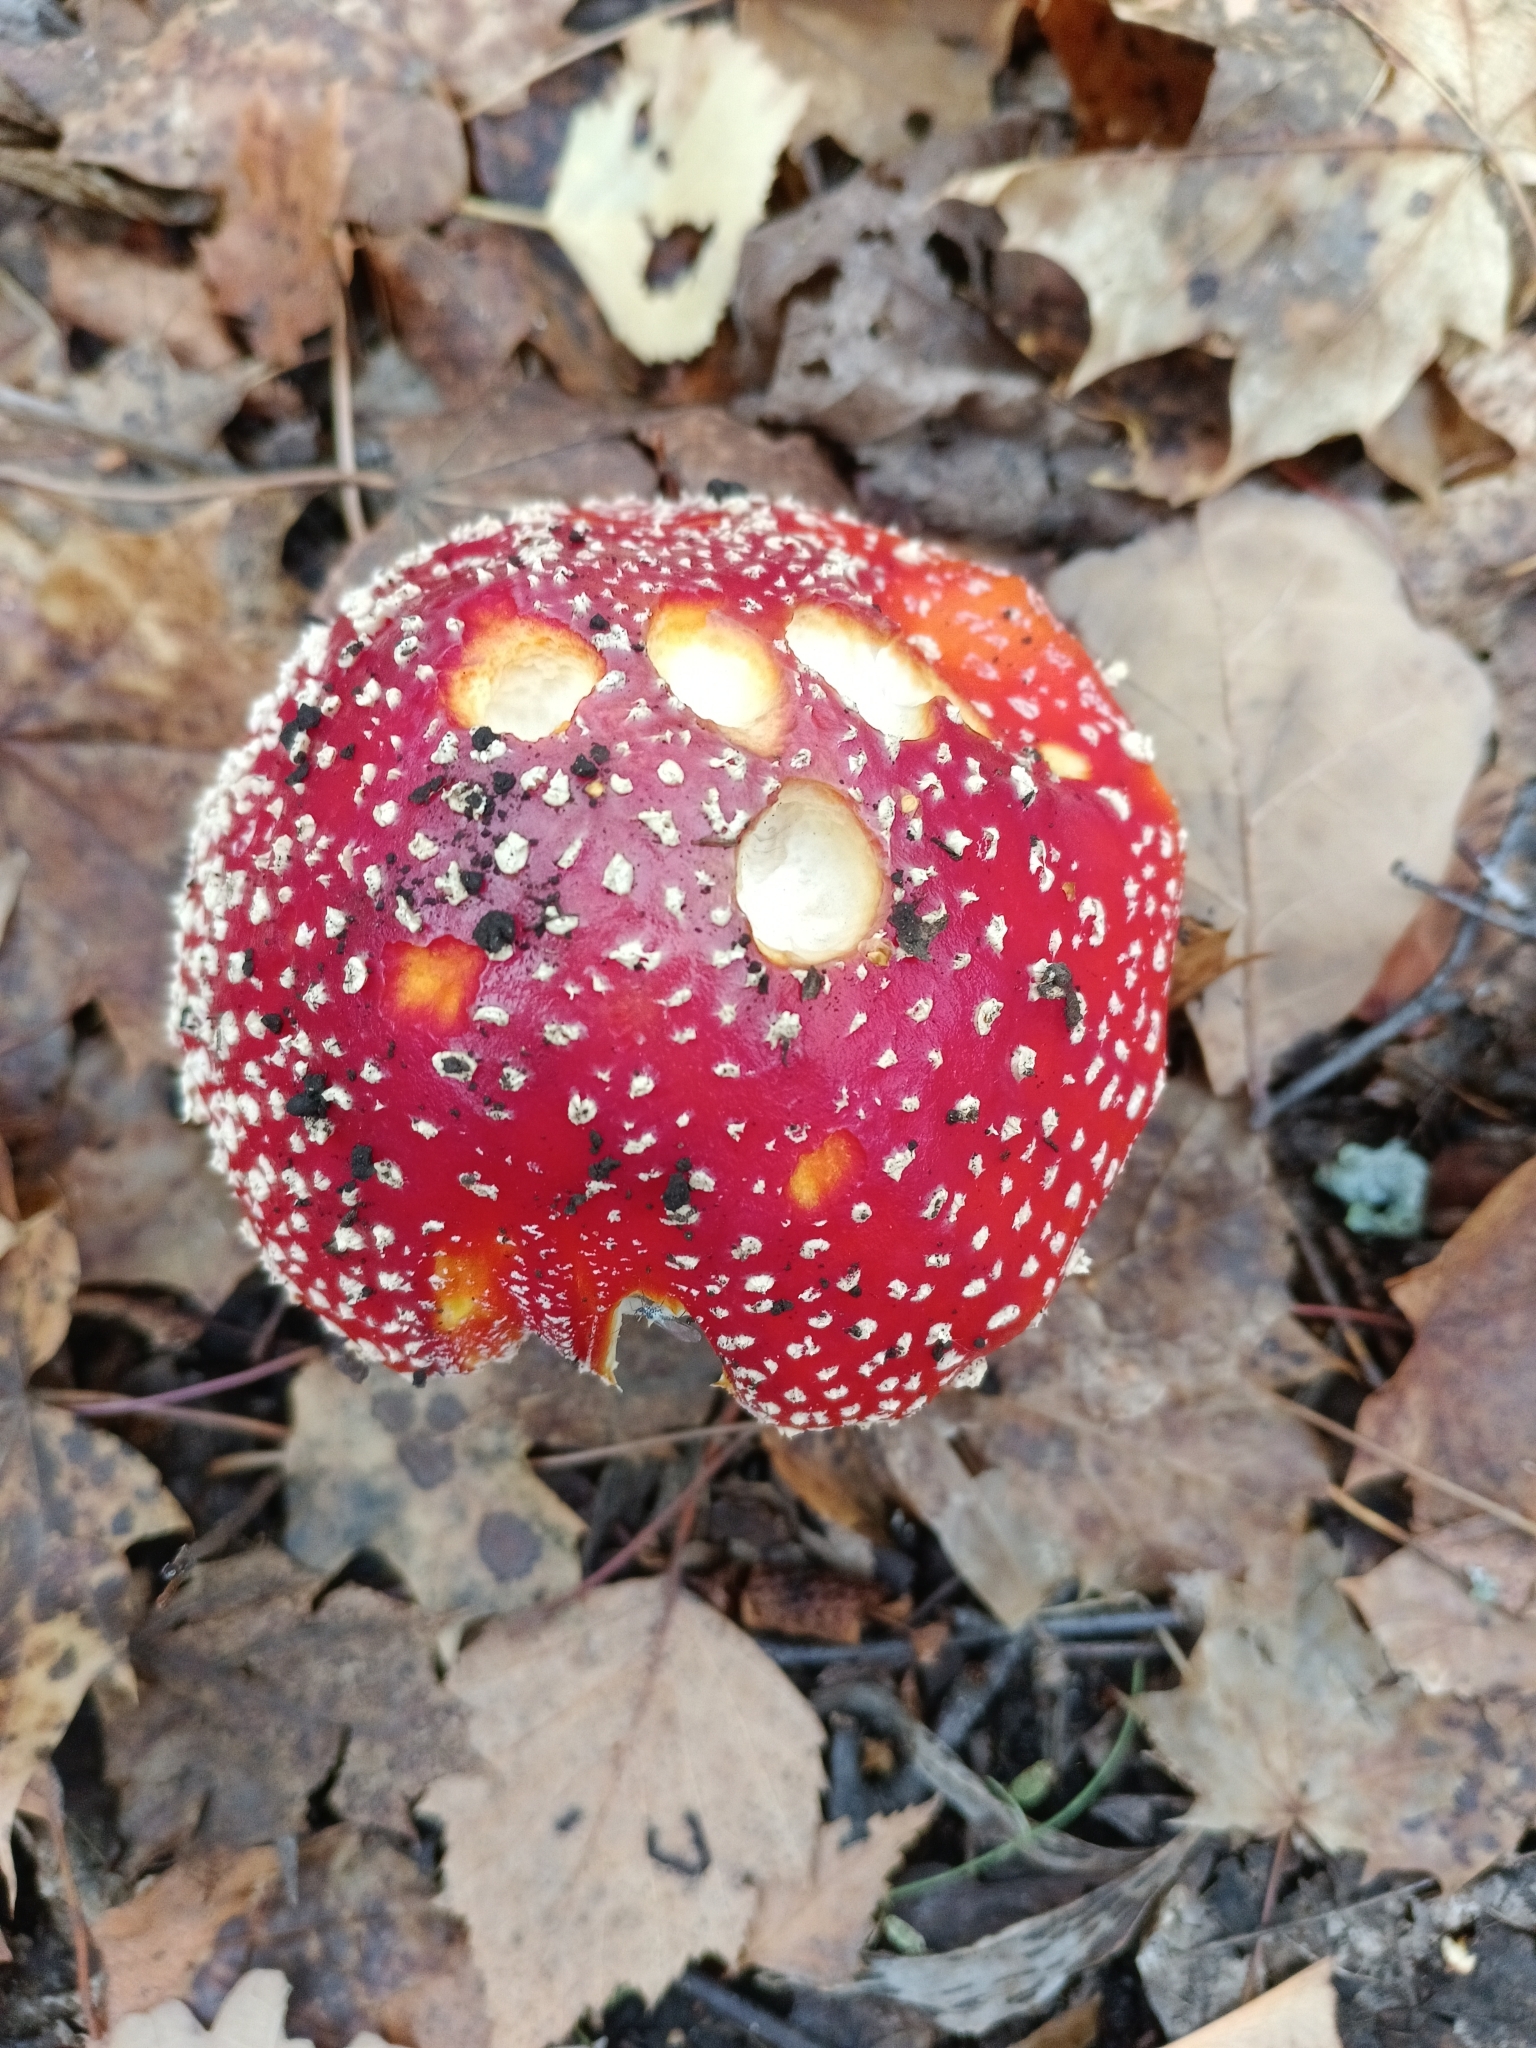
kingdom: Fungi
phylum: Basidiomycota
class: Agaricomycetes
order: Agaricales
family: Amanitaceae
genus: Amanita
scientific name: Amanita muscaria
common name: Fly agaric
